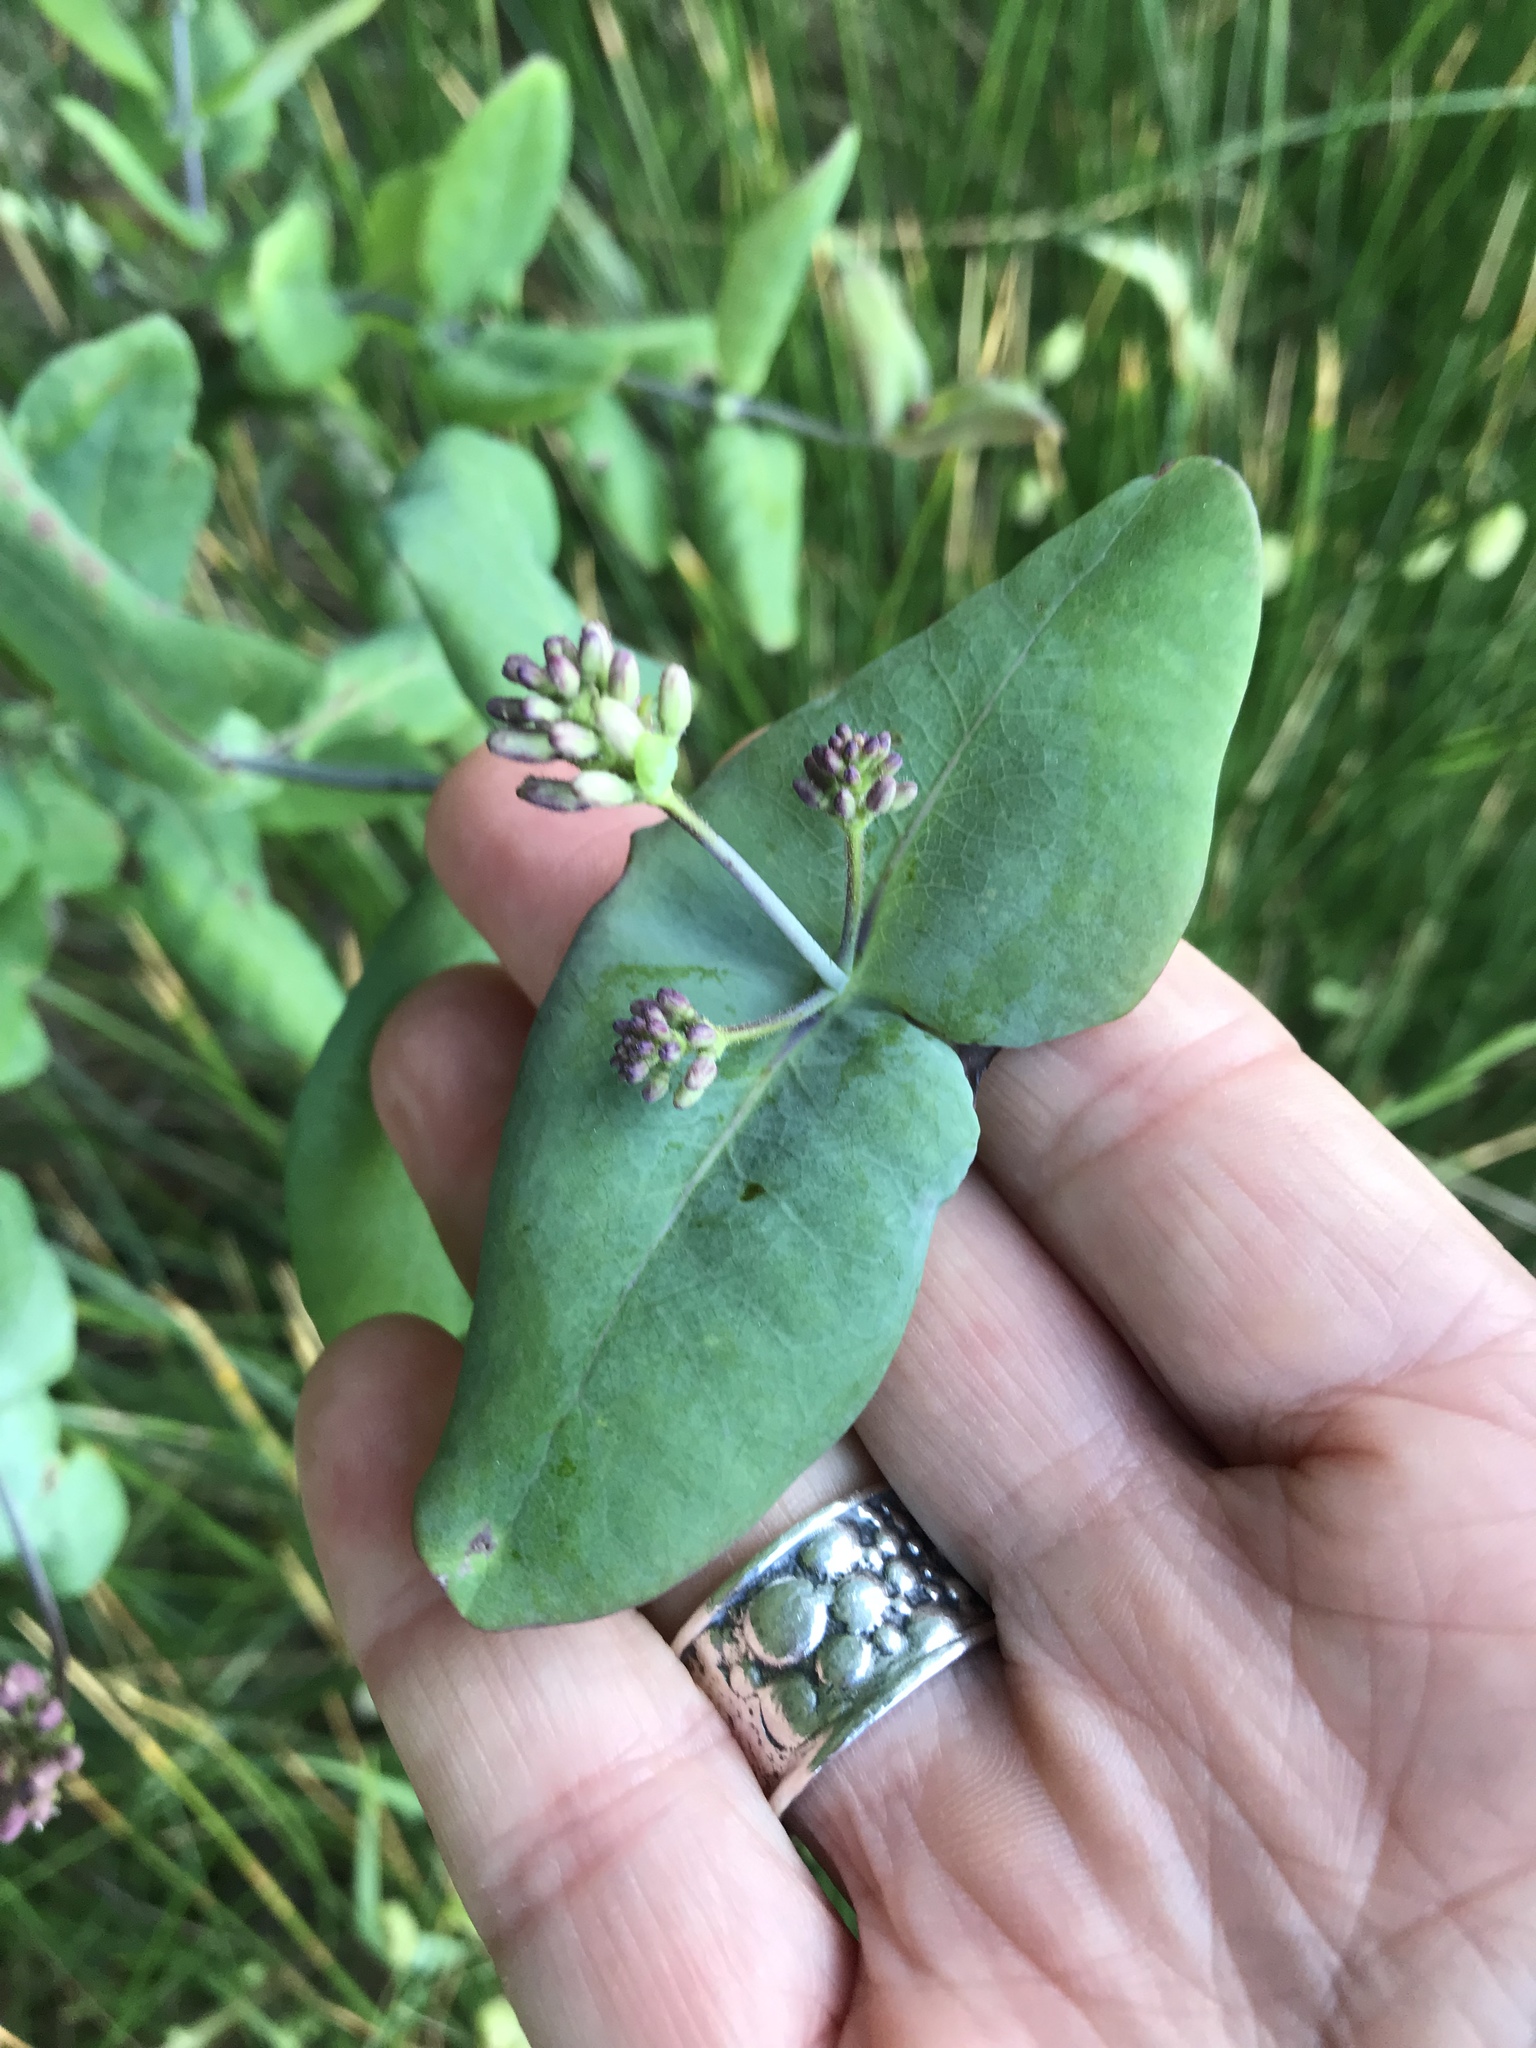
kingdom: Plantae
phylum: Tracheophyta
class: Magnoliopsida
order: Dipsacales
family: Caprifoliaceae
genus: Lonicera
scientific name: Lonicera hispidula
